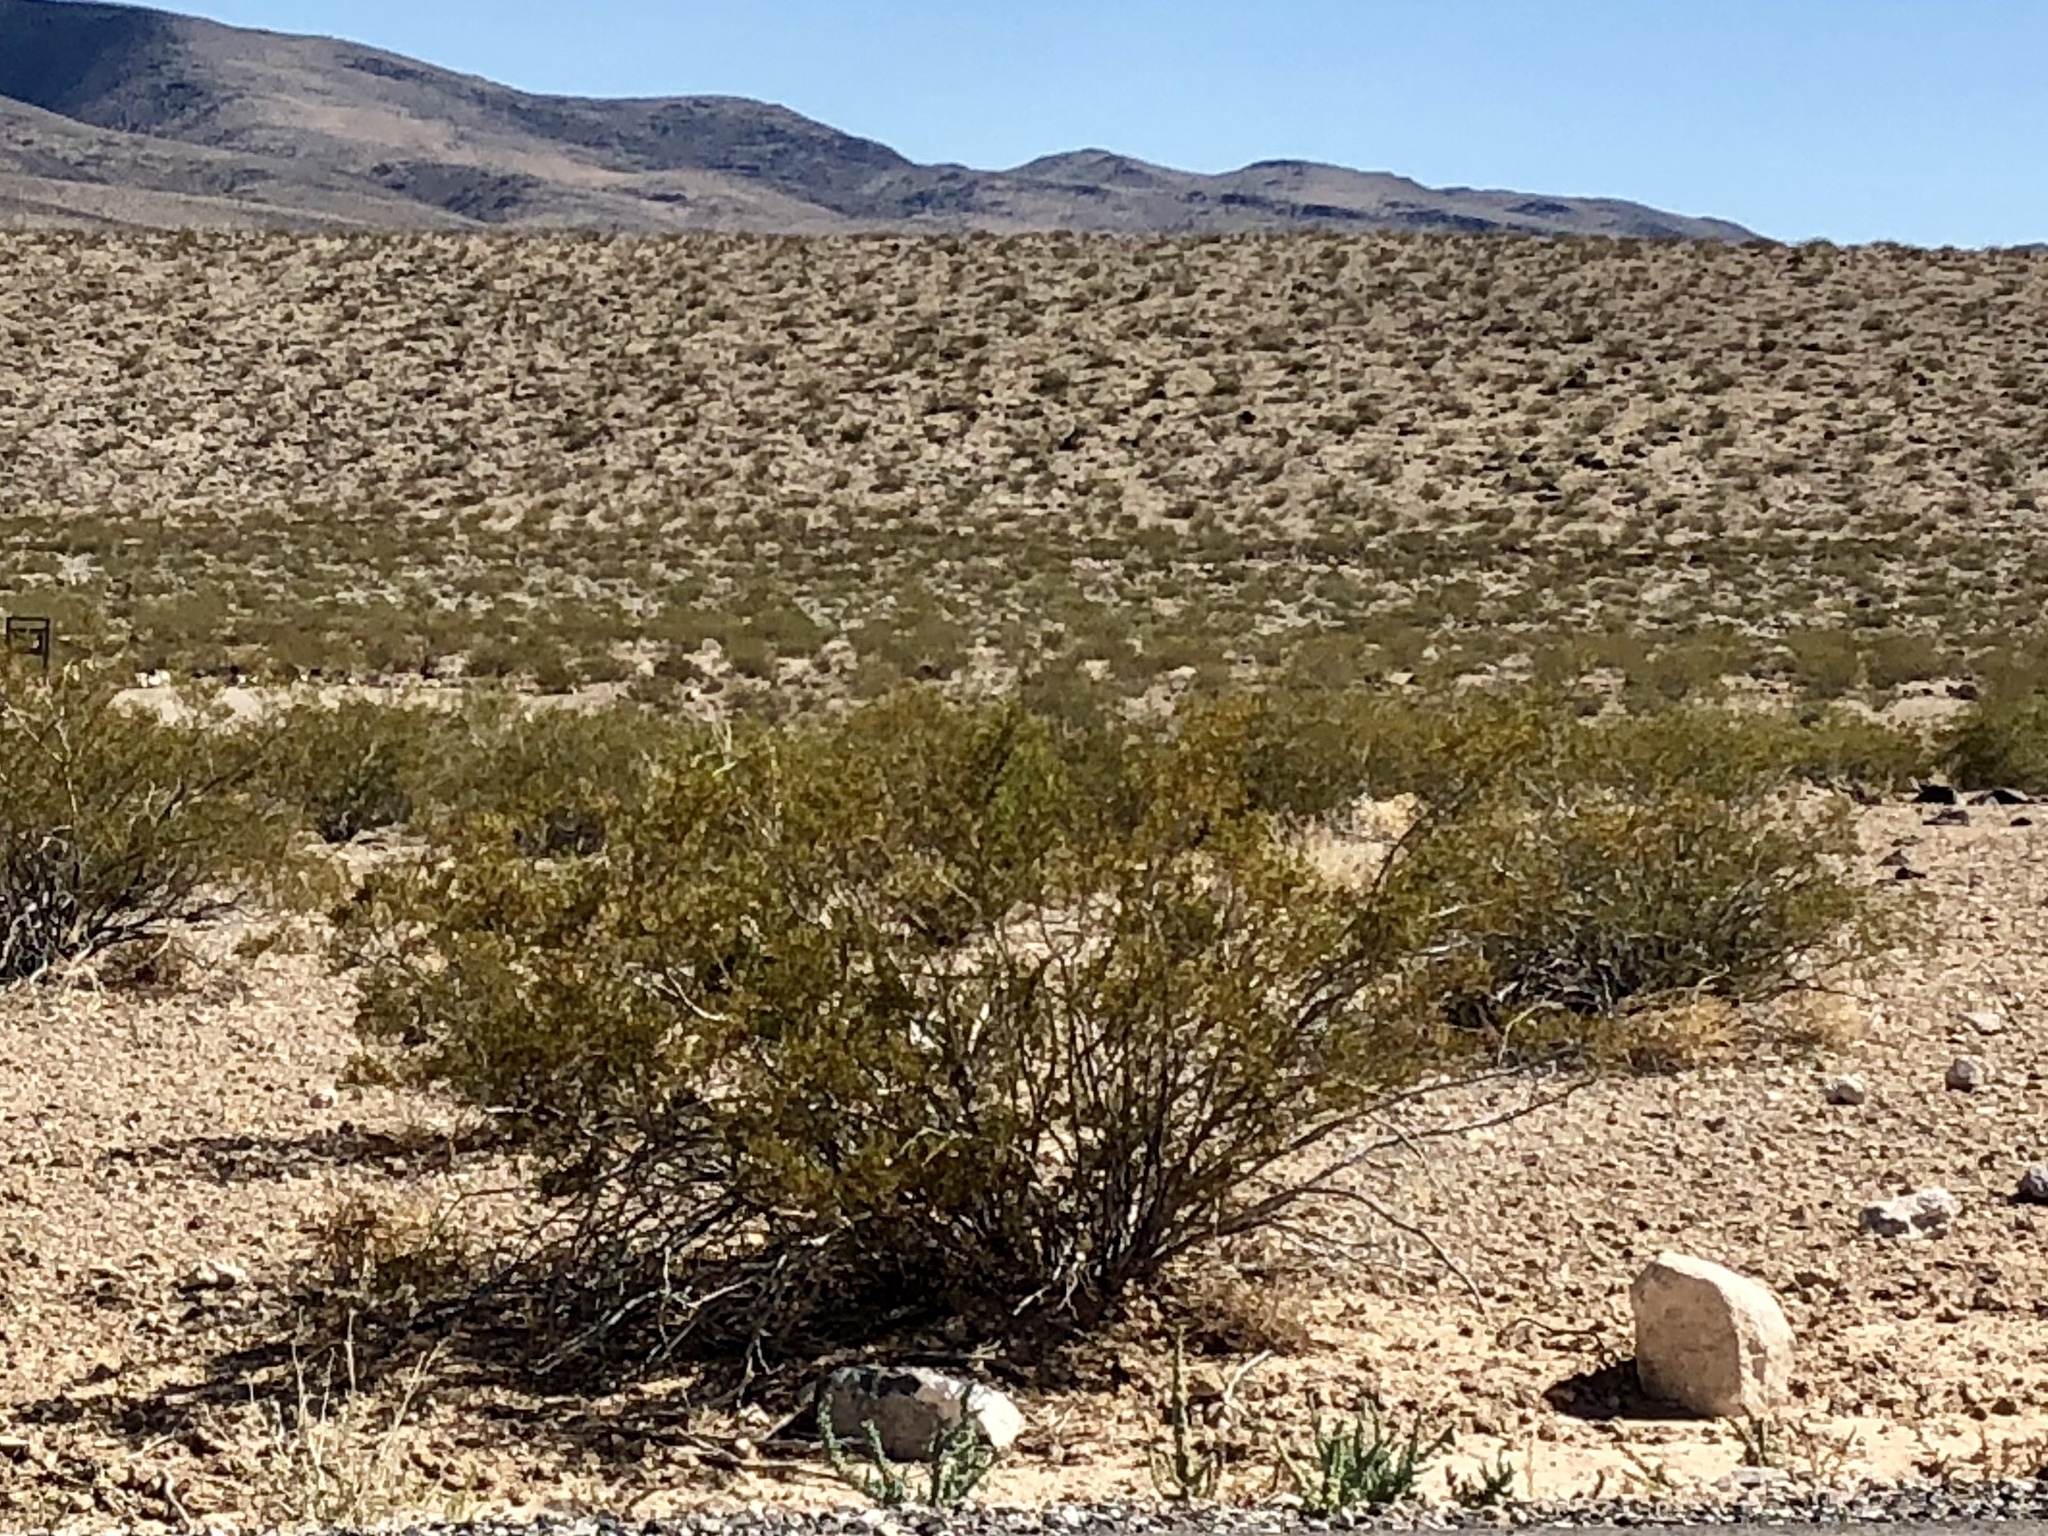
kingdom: Plantae
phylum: Tracheophyta
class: Magnoliopsida
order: Zygophyllales
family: Zygophyllaceae
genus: Larrea
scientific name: Larrea tridentata
